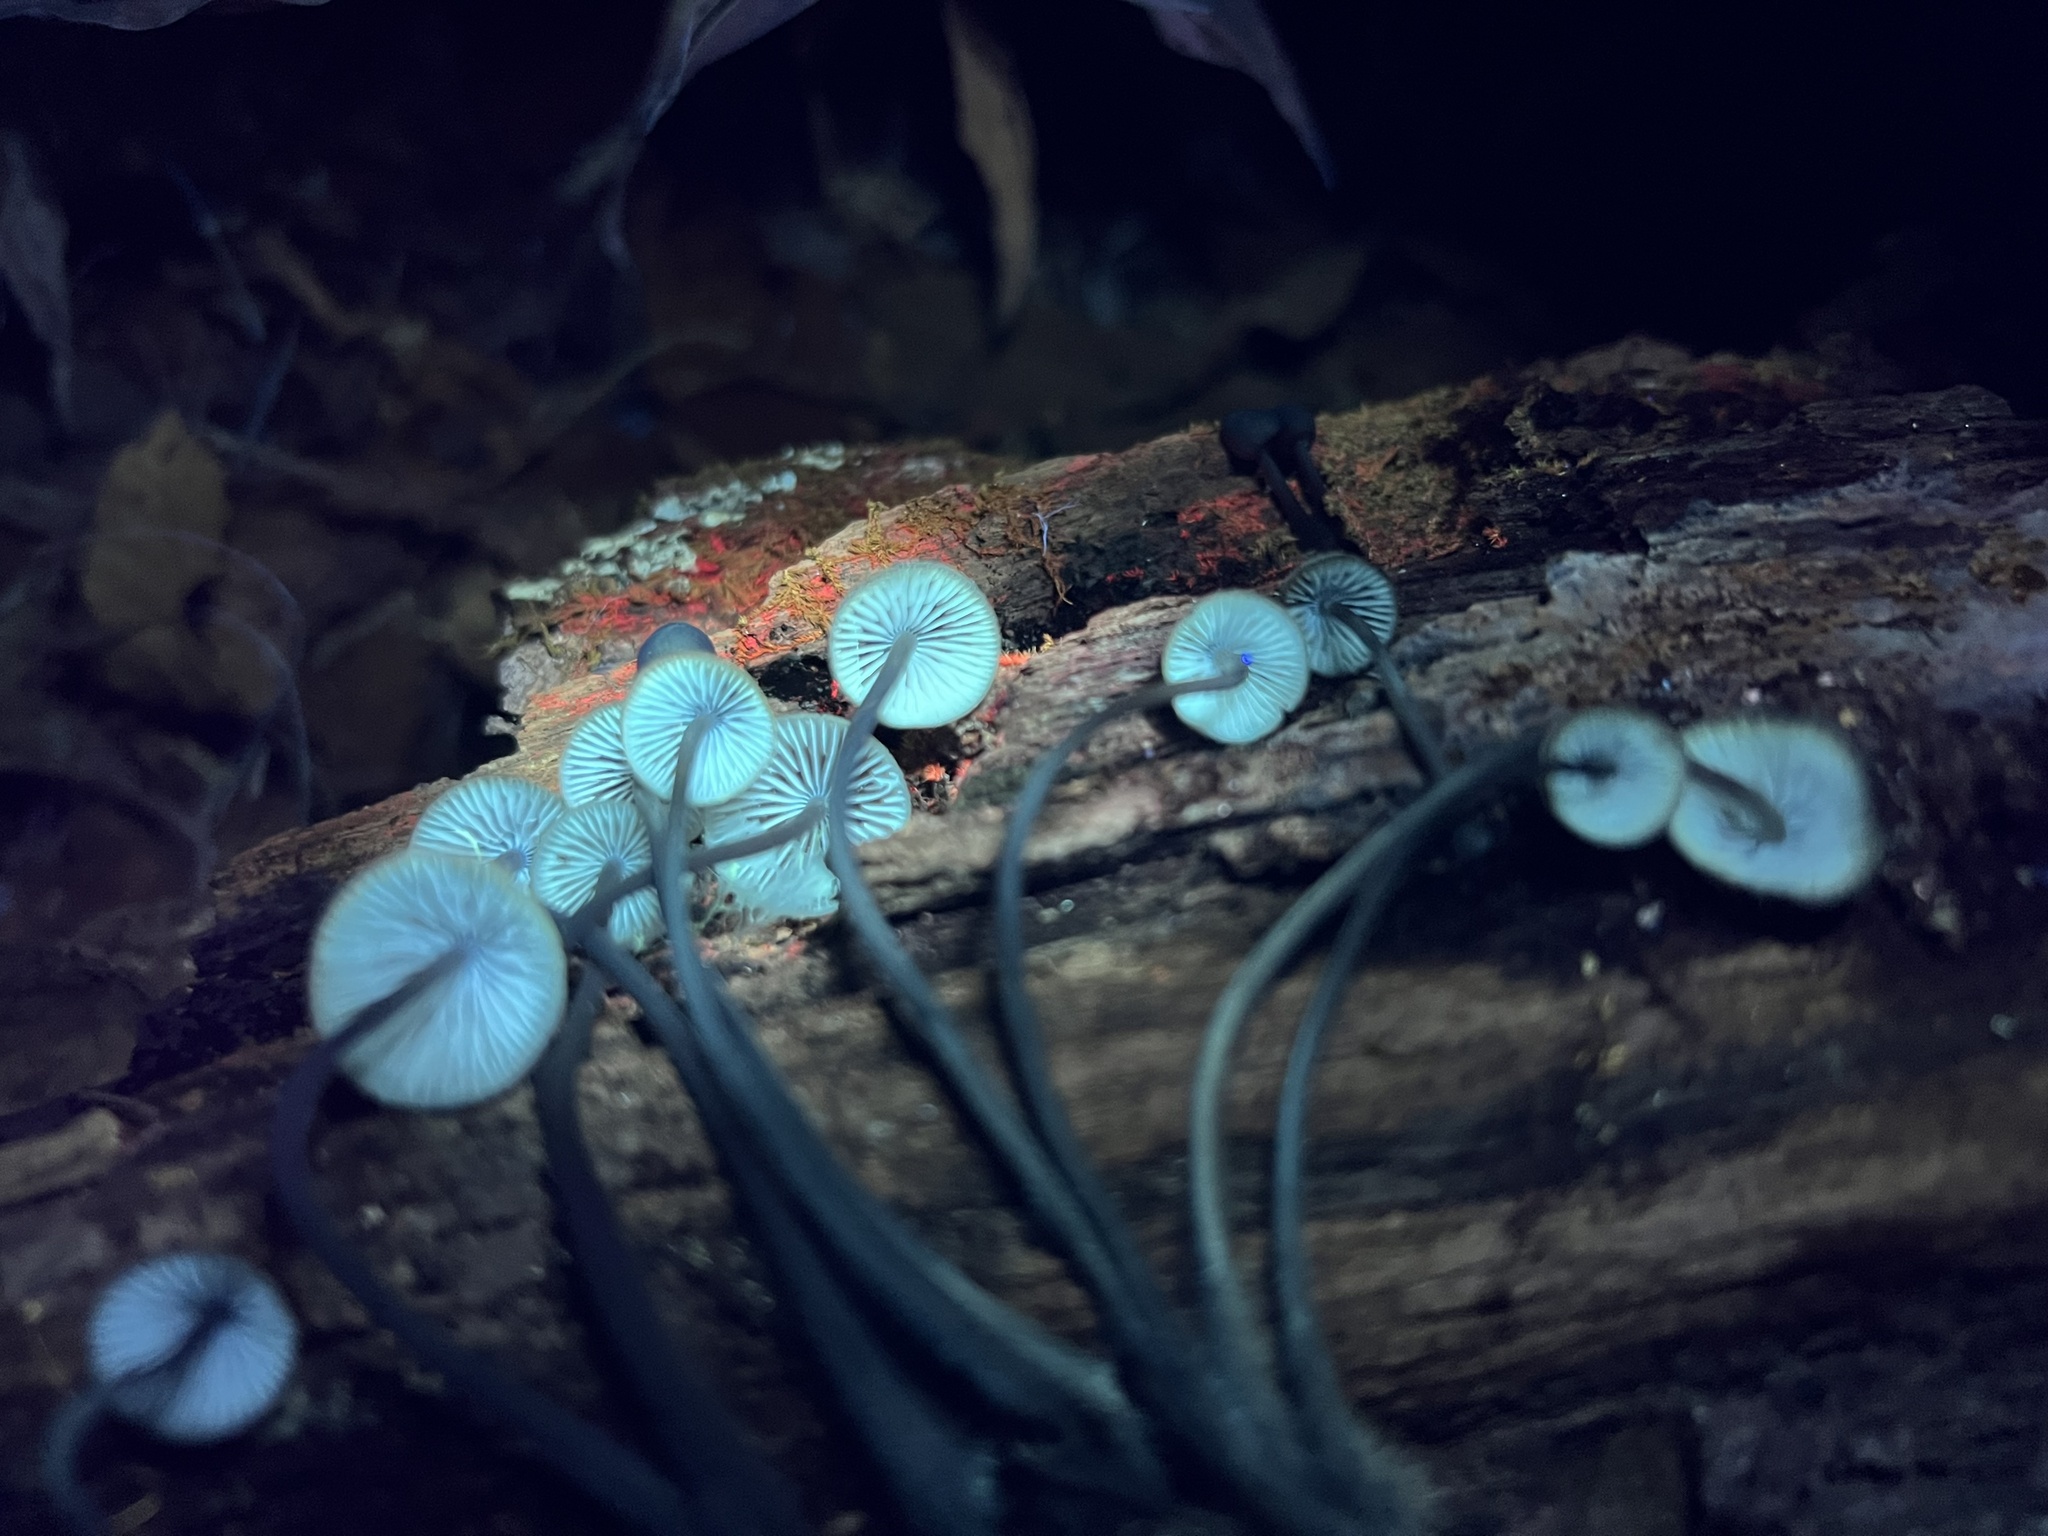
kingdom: Fungi
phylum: Basidiomycota
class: Agaricomycetes
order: Agaricales
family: Mycenaceae
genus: Mycena
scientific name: Mycena haematopus
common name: Burgundydrop bonnet
